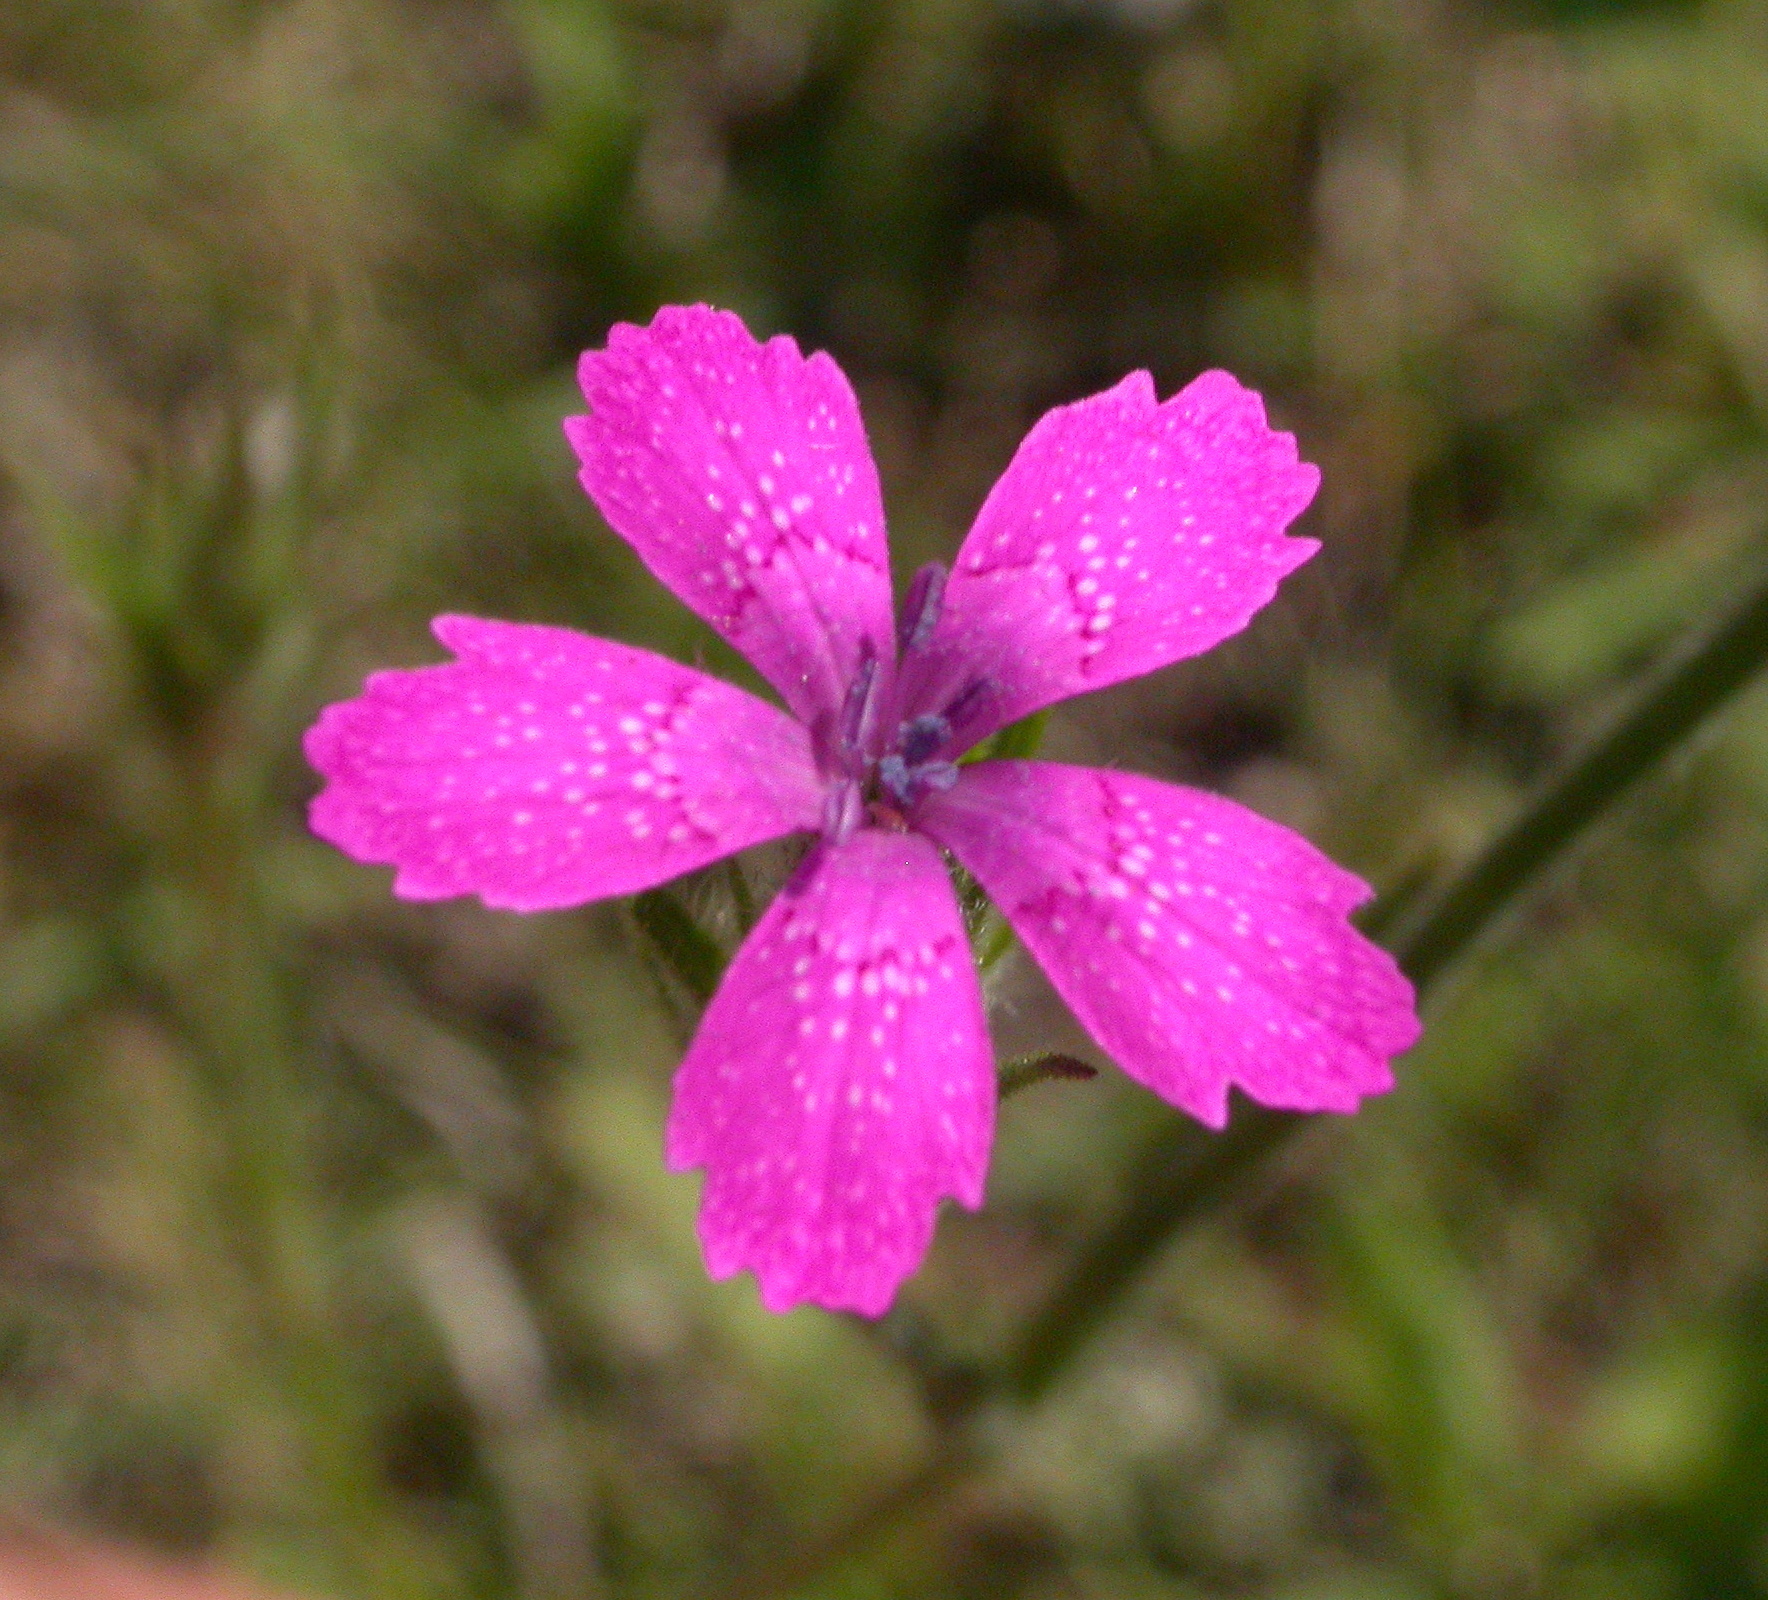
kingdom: Plantae
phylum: Tracheophyta
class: Magnoliopsida
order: Caryophyllales
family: Caryophyllaceae
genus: Dianthus
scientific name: Dianthus armeria
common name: Deptford pink
